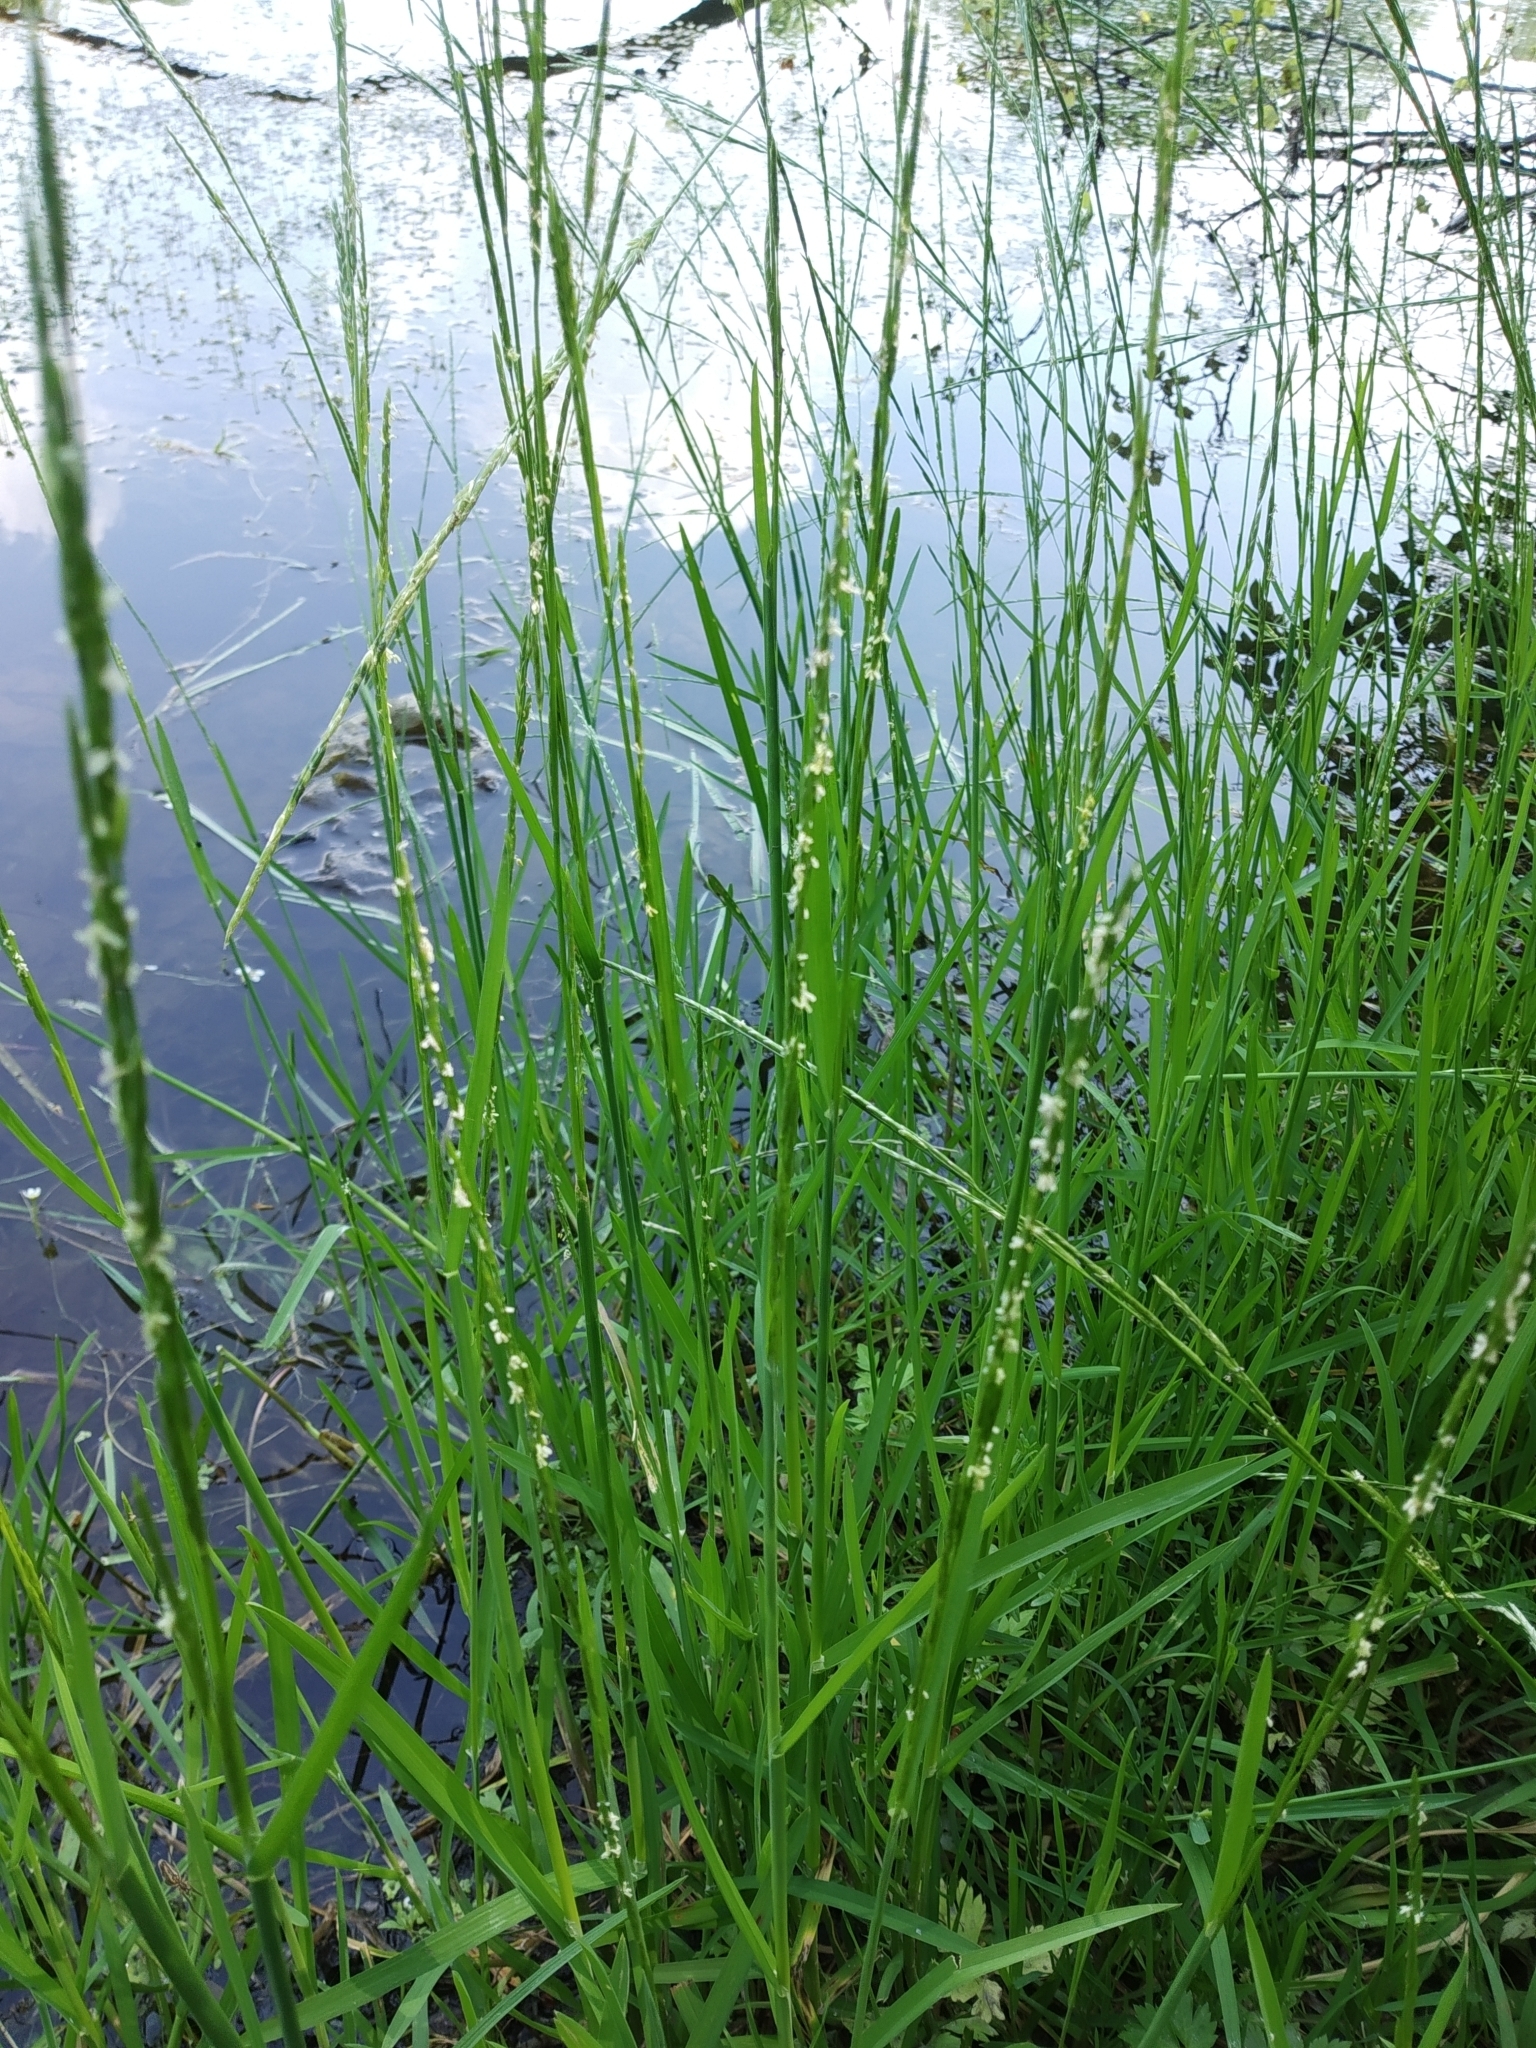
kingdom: Plantae
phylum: Tracheophyta
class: Liliopsida
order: Poales
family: Poaceae
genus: Glyceria
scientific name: Glyceria fluitans
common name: Floating sweet-grass
